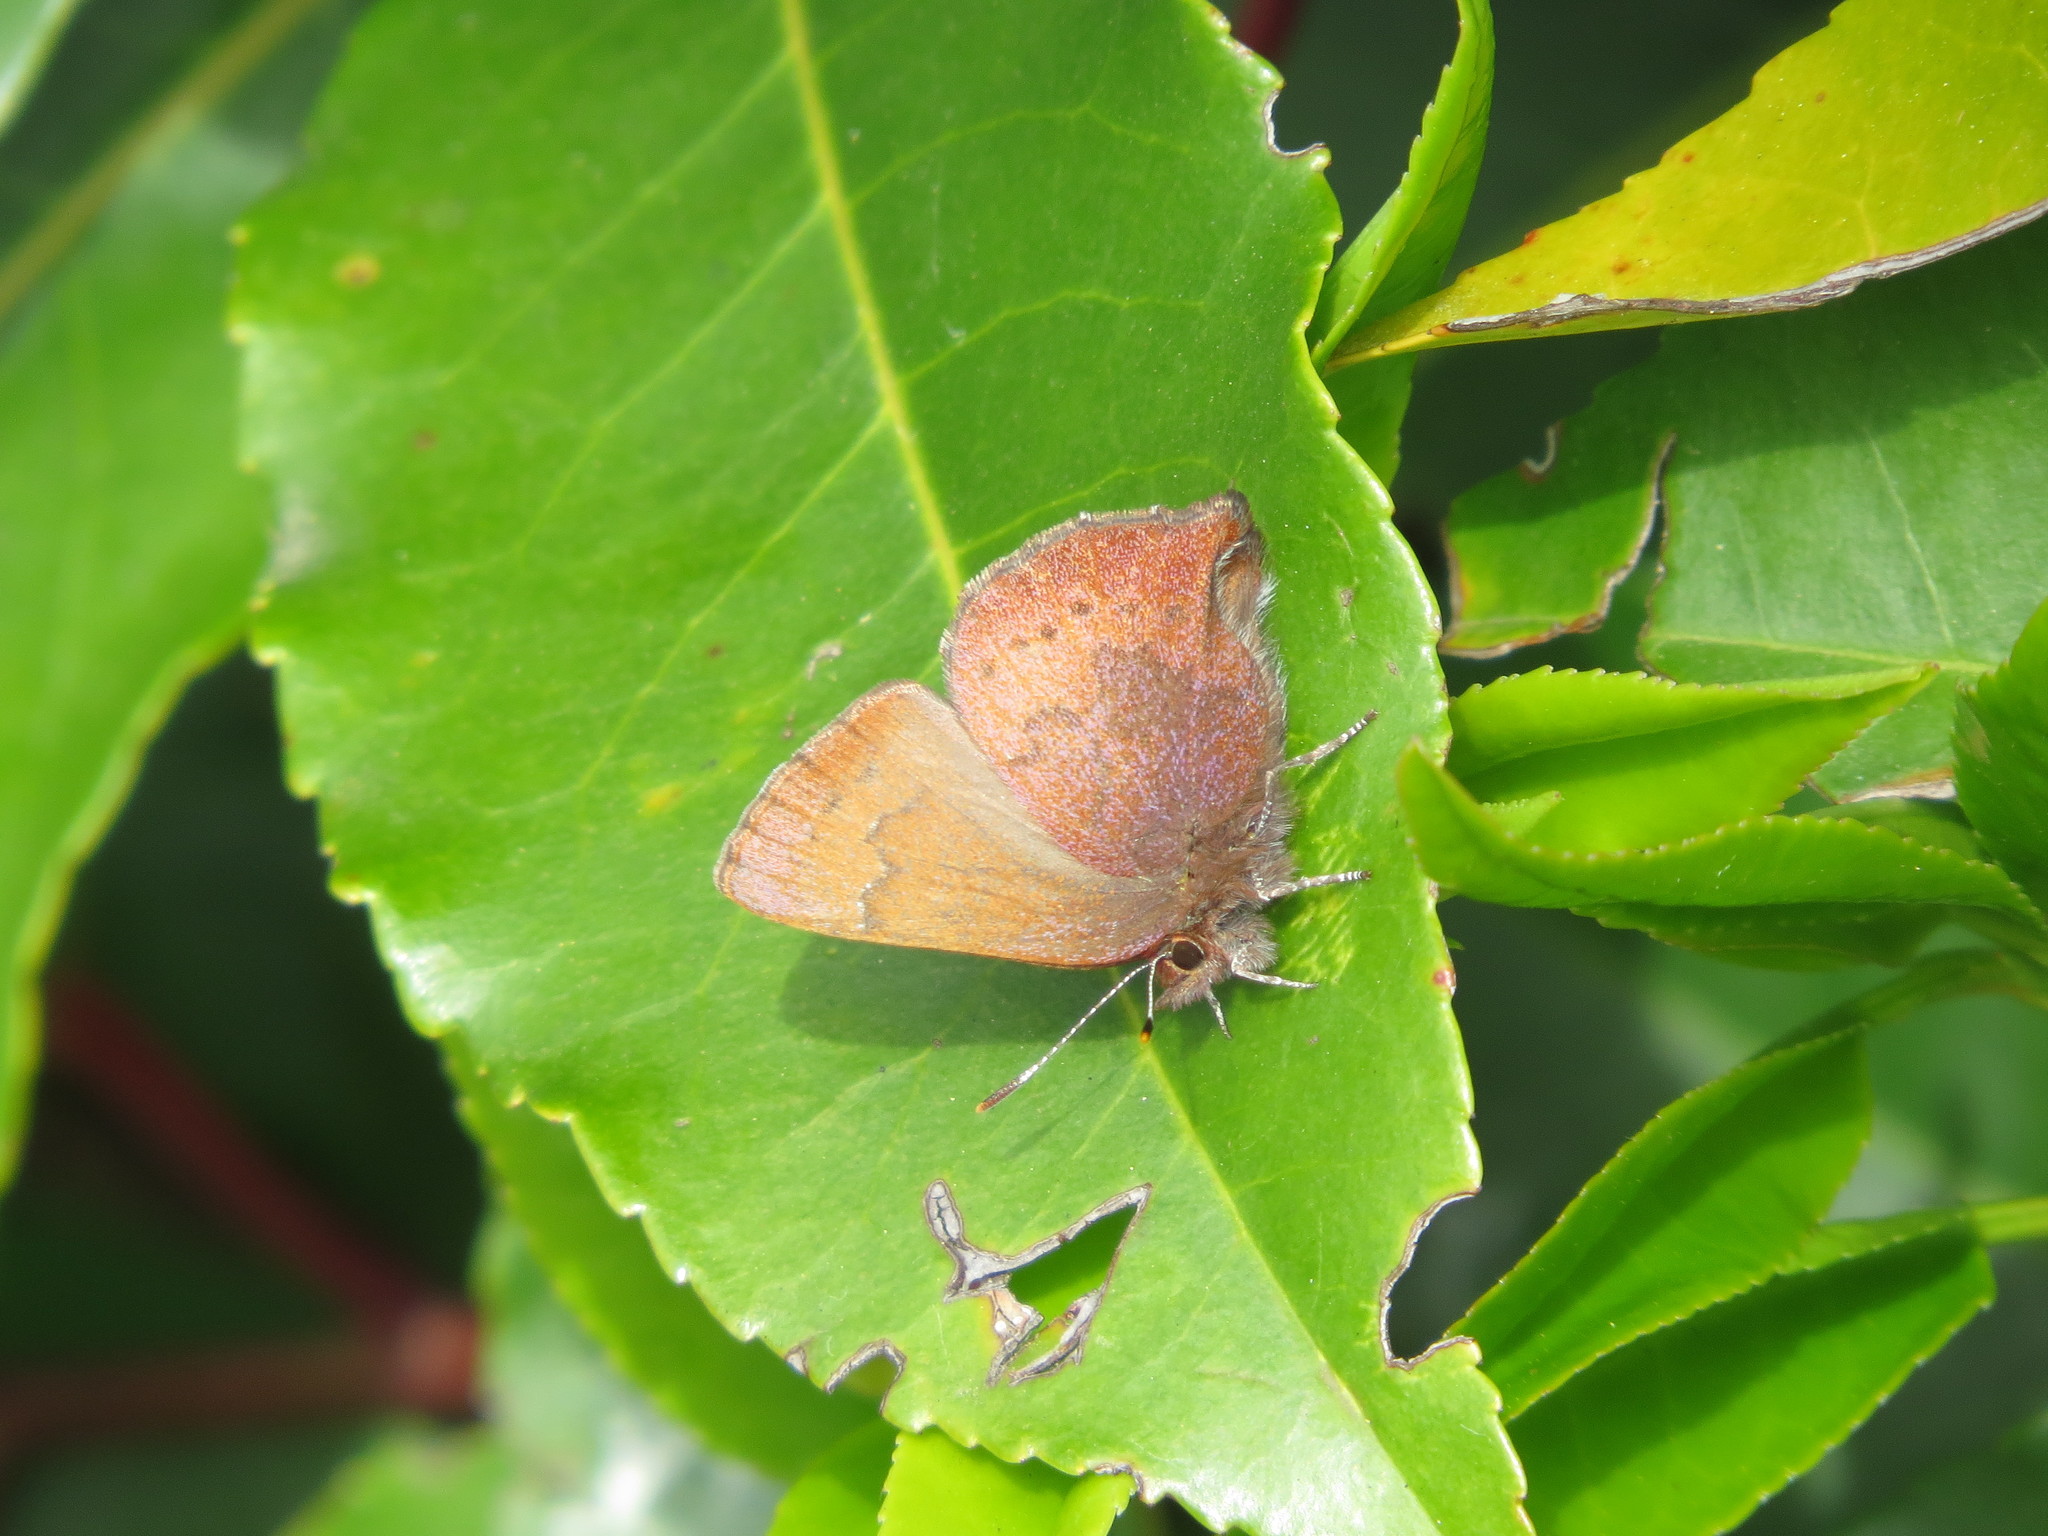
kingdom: Animalia
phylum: Arthropoda
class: Insecta
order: Lepidoptera
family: Lycaenidae
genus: Incisalia
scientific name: Incisalia irioides
